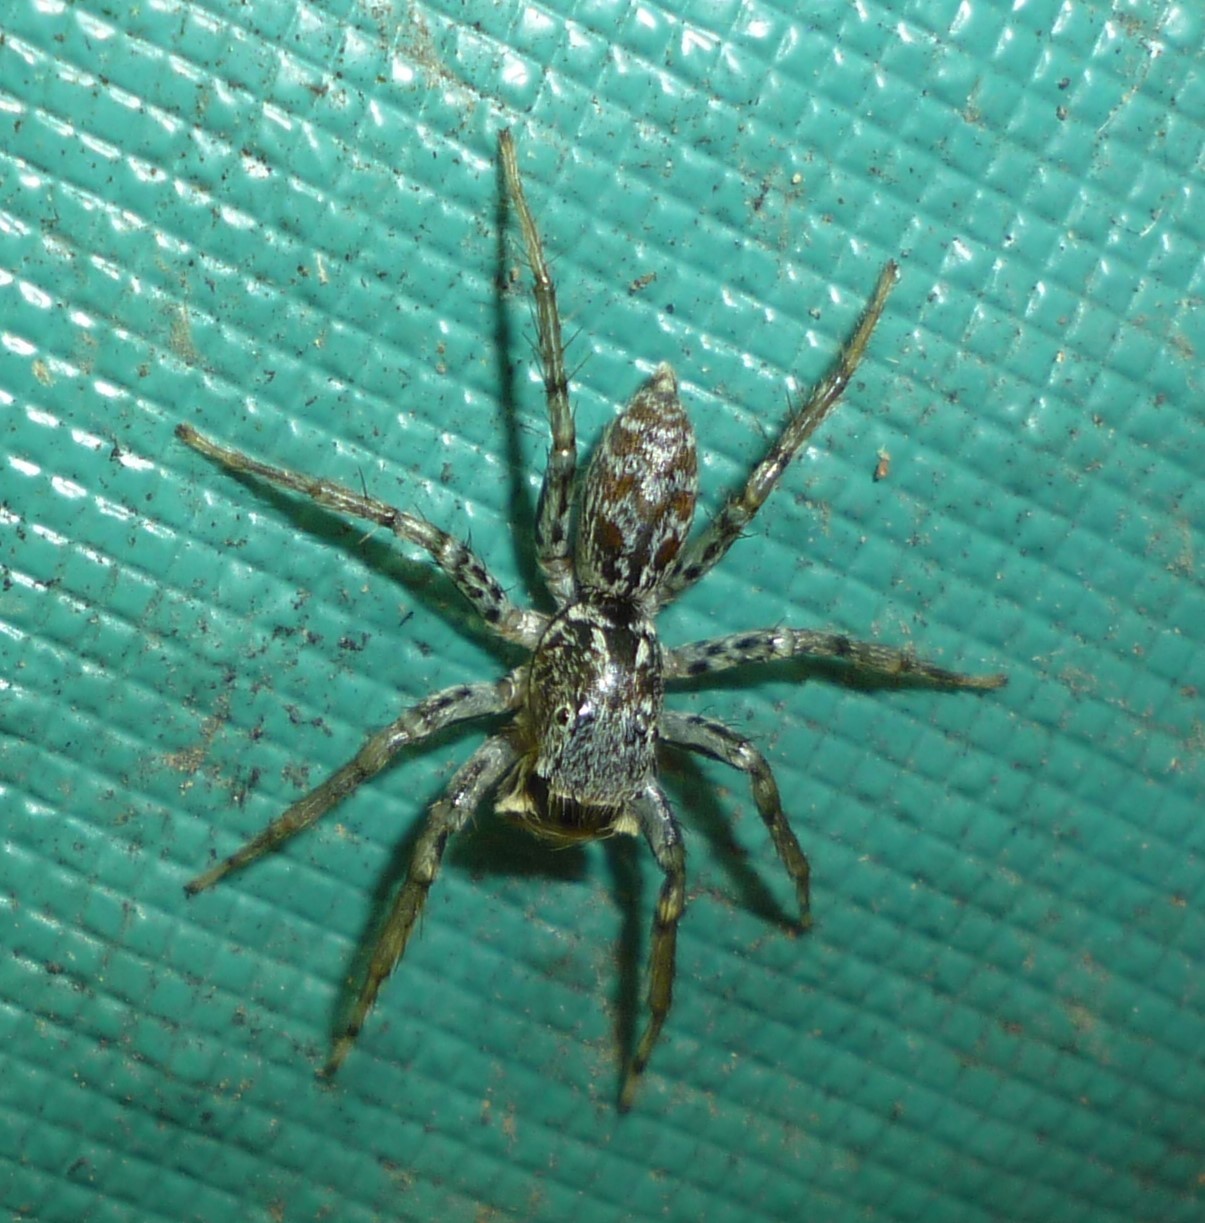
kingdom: Animalia
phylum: Arthropoda
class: Arachnida
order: Araneae
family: Salticidae
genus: Maevia
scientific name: Maevia inclemens
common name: Dimorphic jumper
